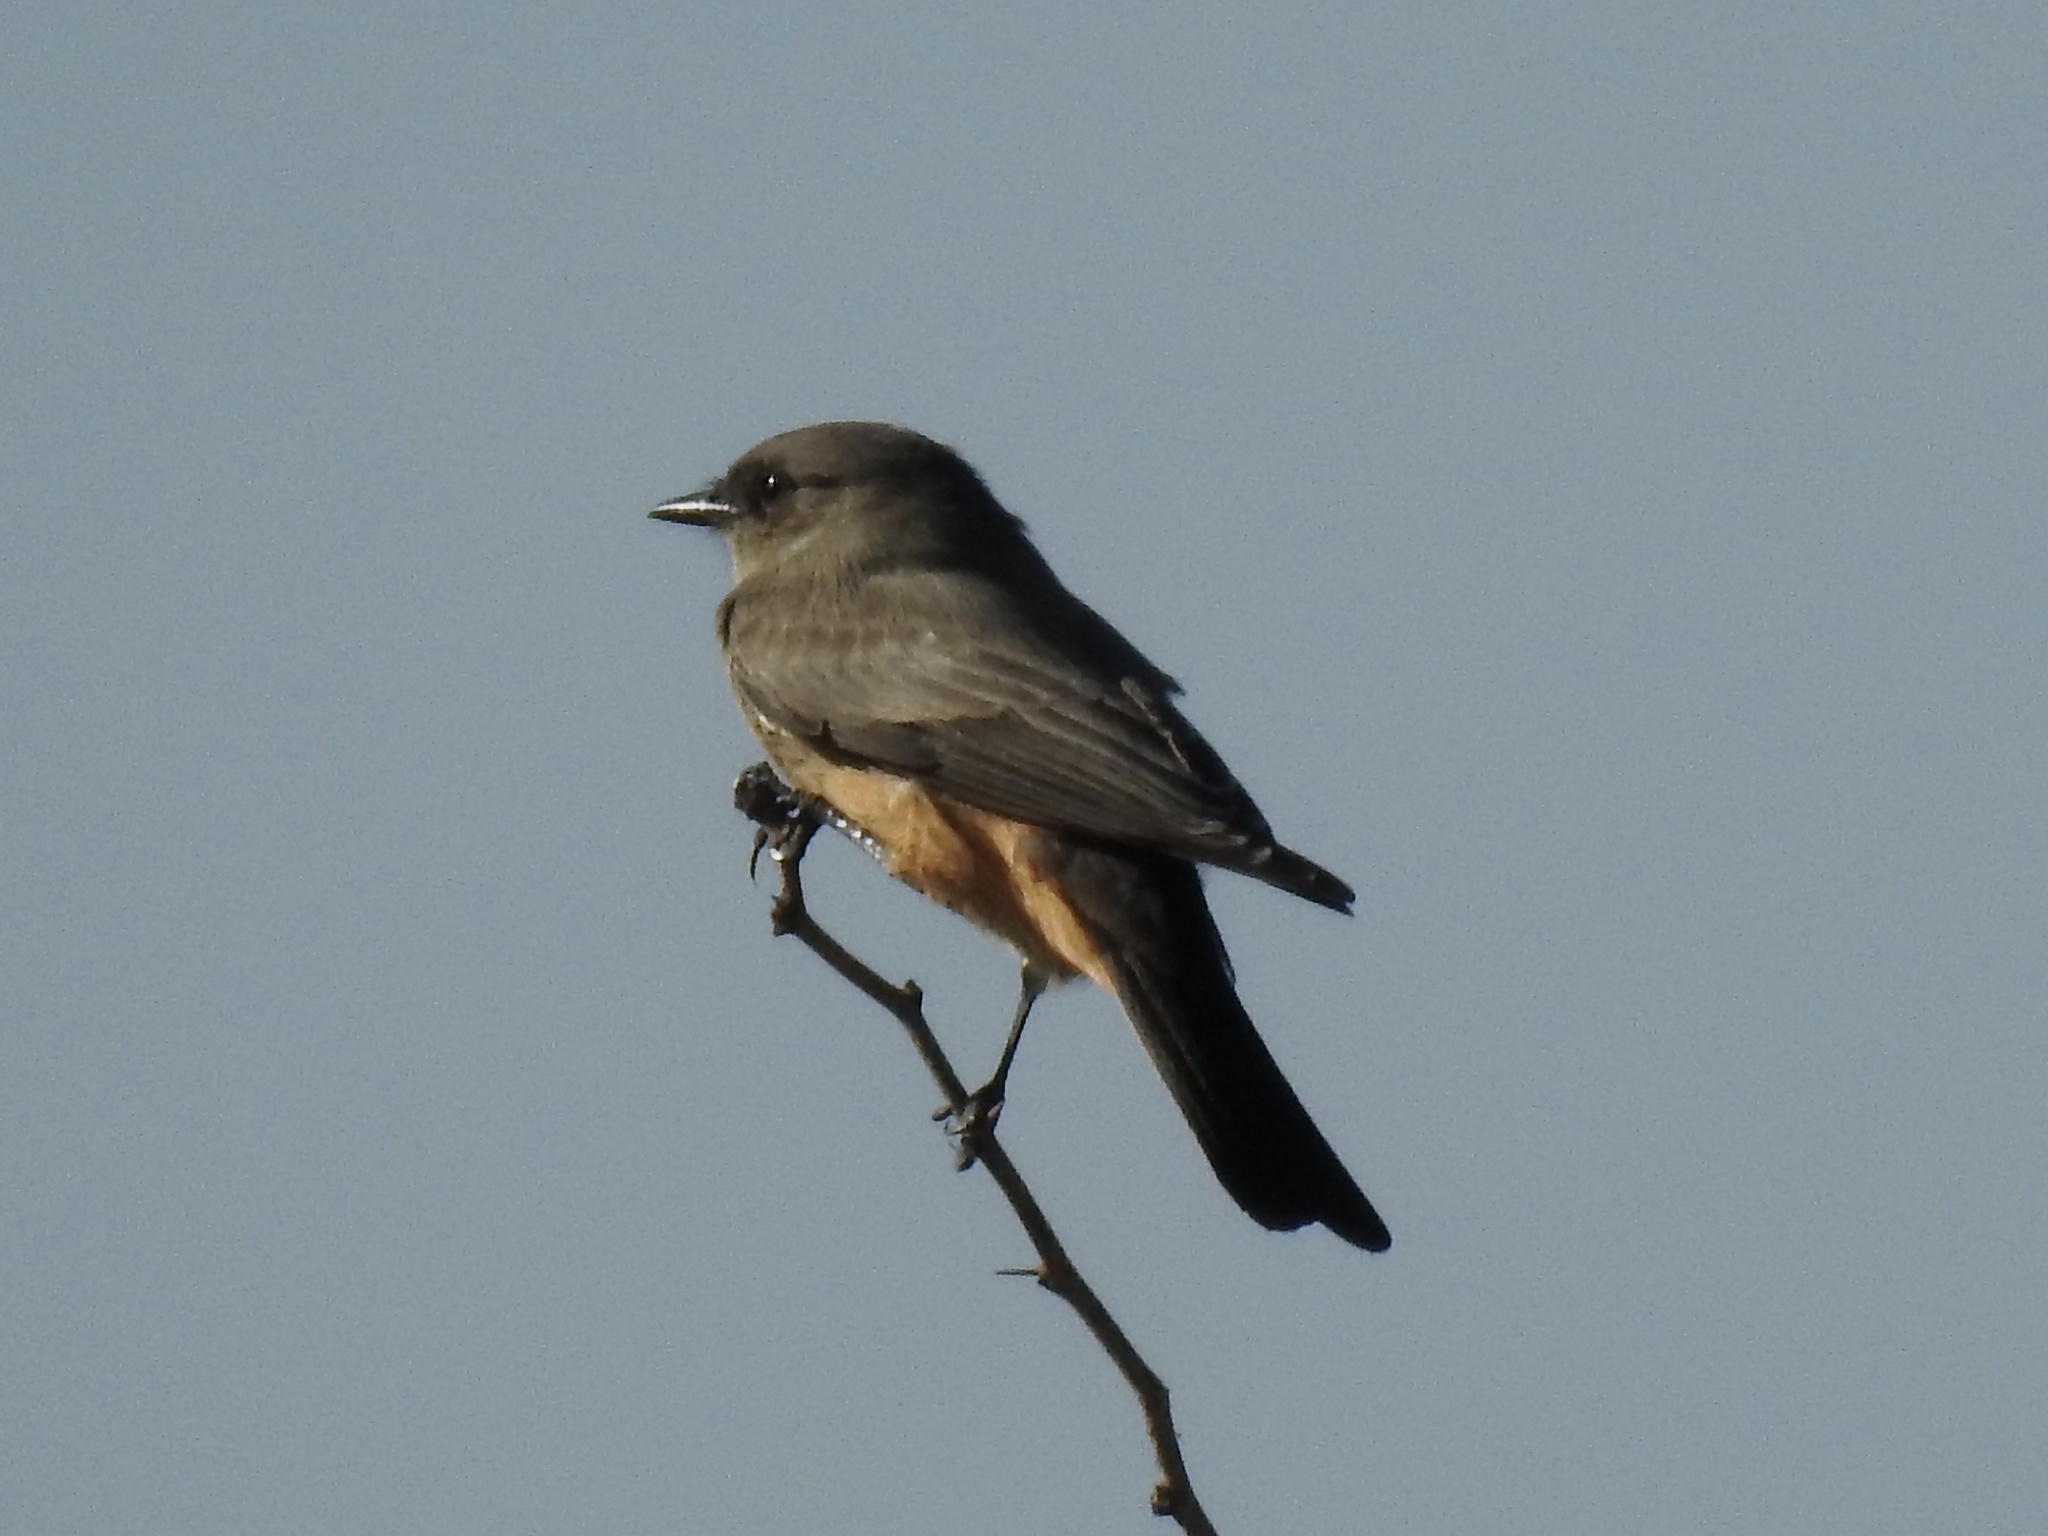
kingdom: Animalia
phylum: Chordata
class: Aves
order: Passeriformes
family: Tyrannidae
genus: Sayornis
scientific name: Sayornis saya
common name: Say's phoebe
